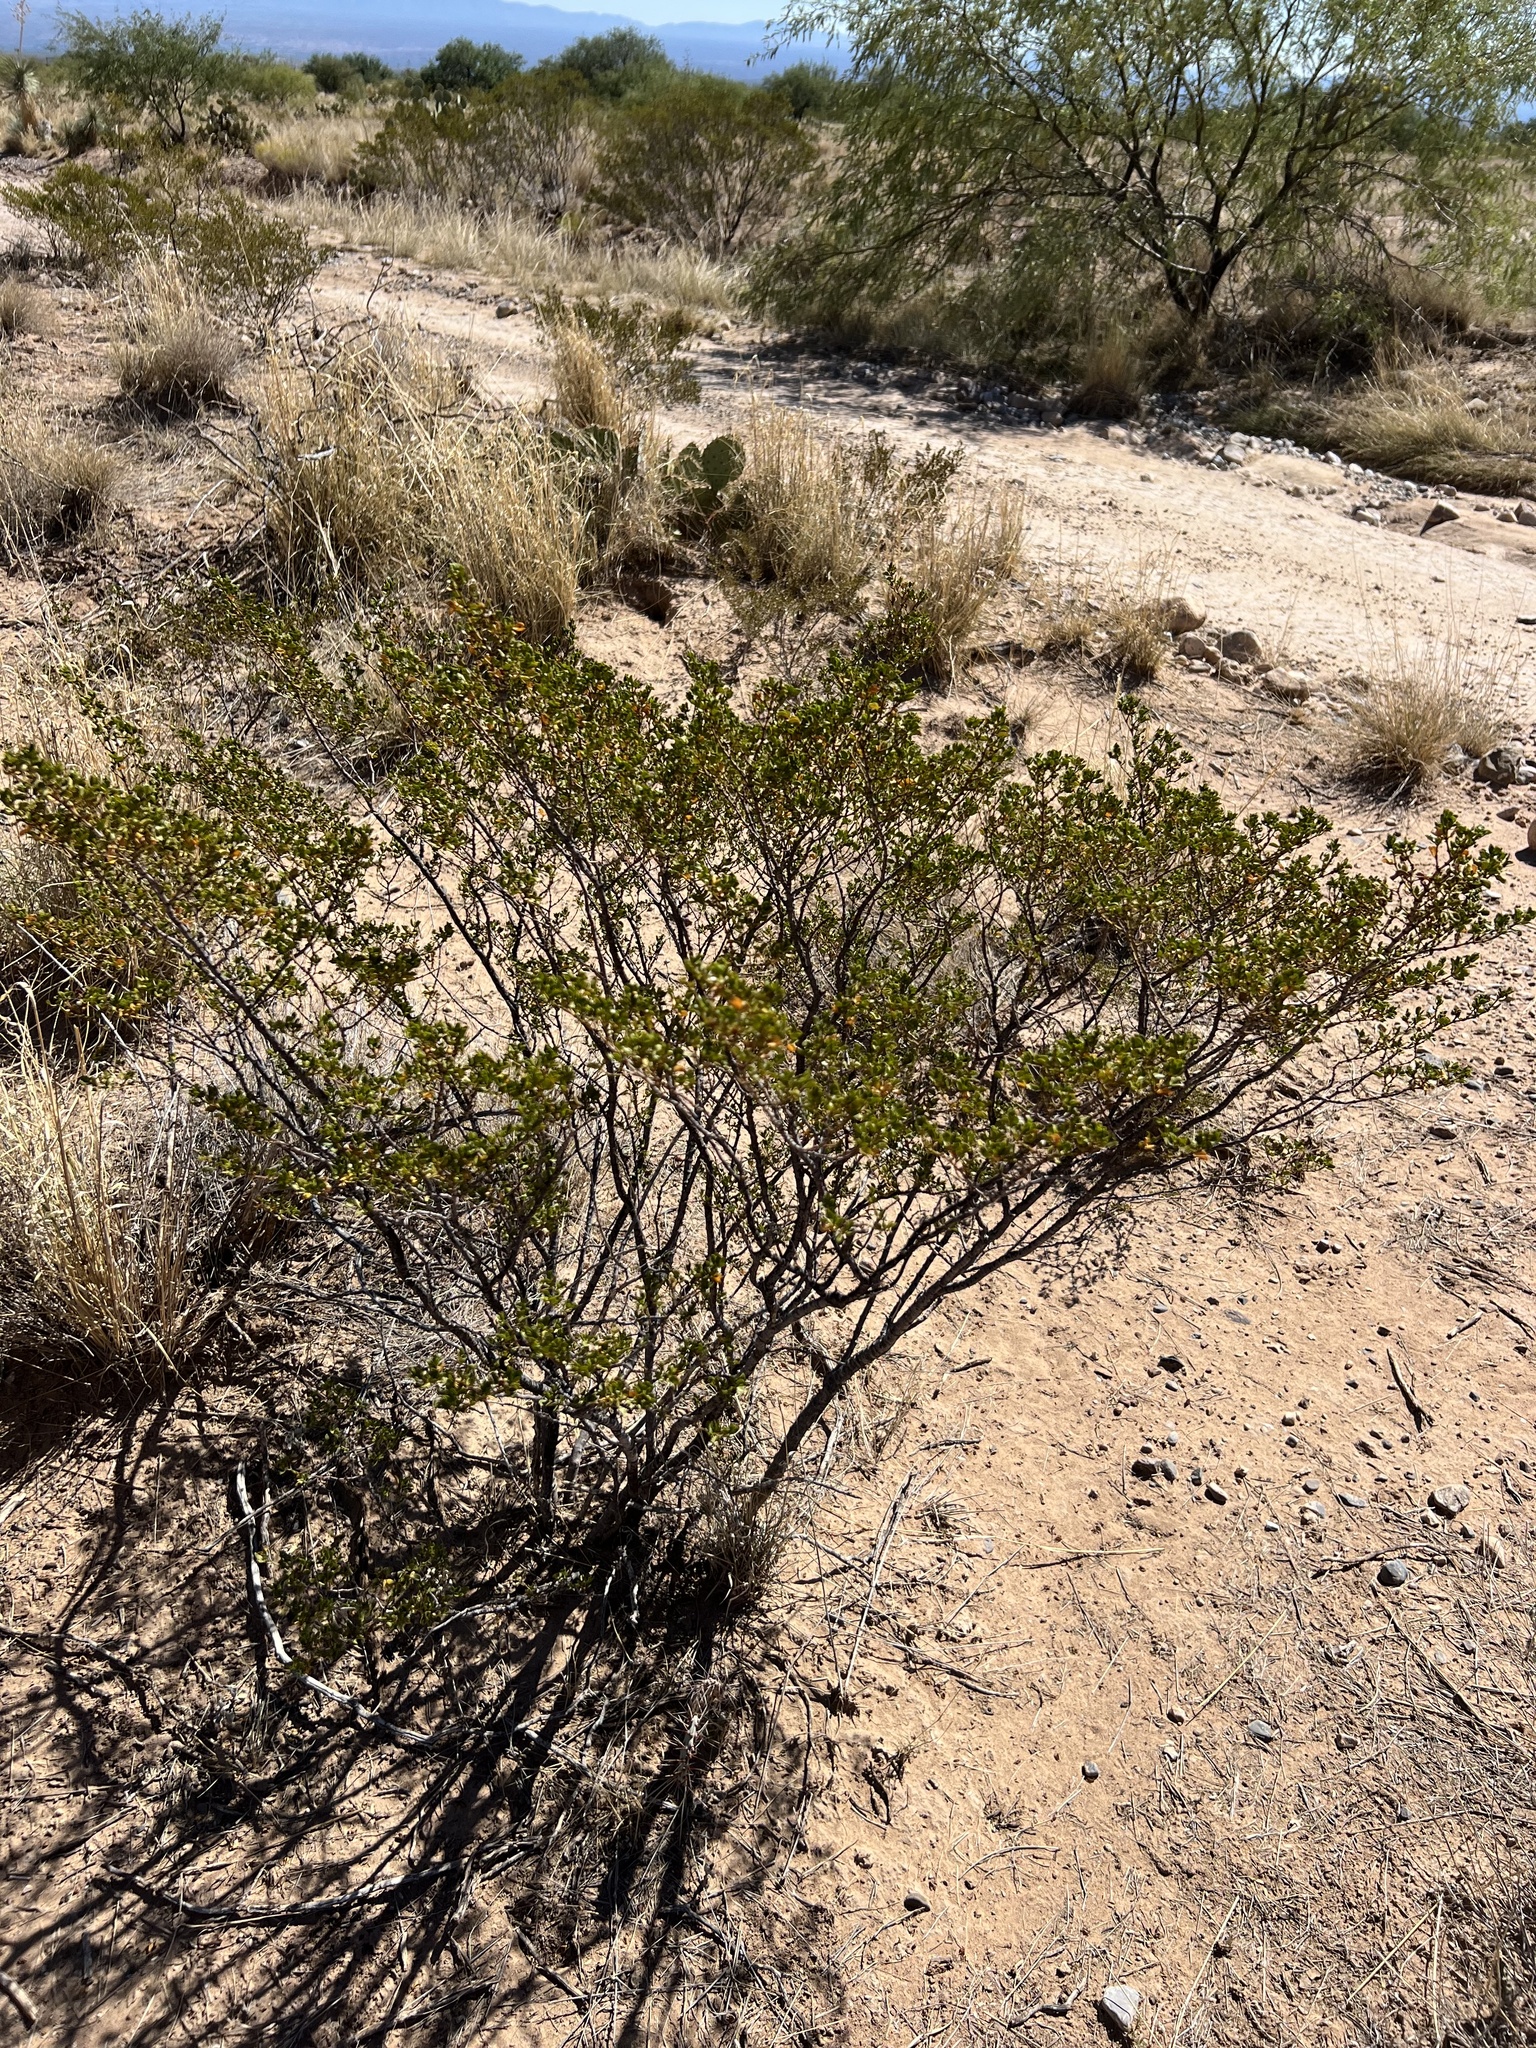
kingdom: Plantae
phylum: Tracheophyta
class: Magnoliopsida
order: Zygophyllales
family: Zygophyllaceae
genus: Larrea
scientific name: Larrea tridentata
